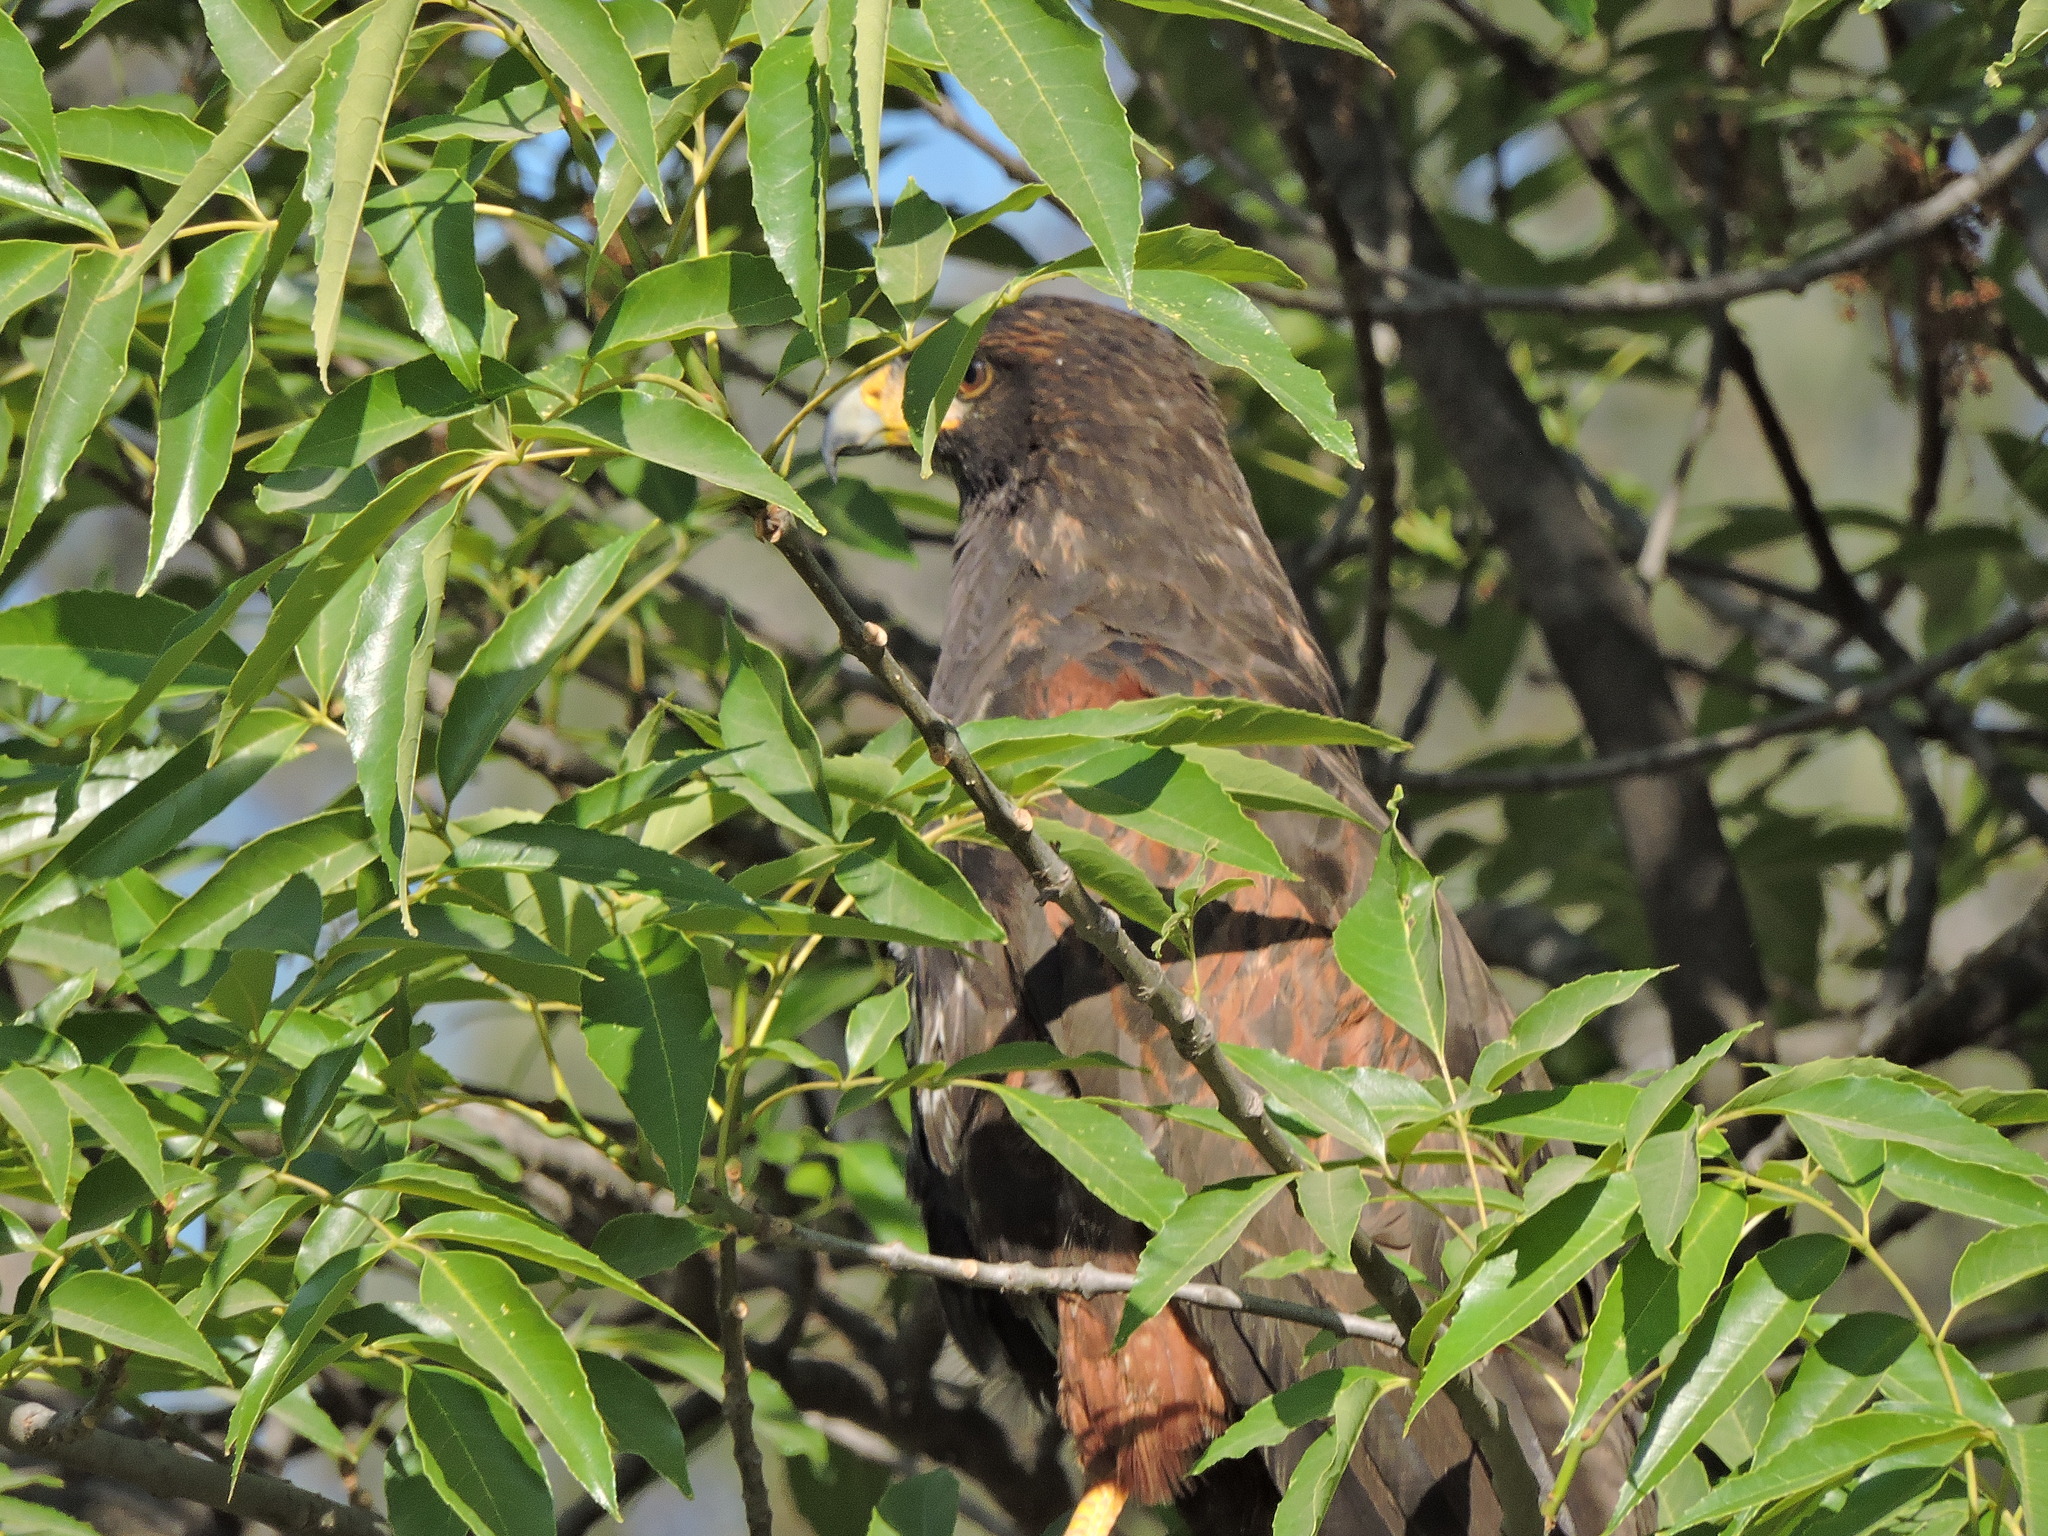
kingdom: Animalia
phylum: Chordata
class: Aves
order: Accipitriformes
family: Accipitridae
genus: Parabuteo
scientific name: Parabuteo unicinctus
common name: Harris's hawk
